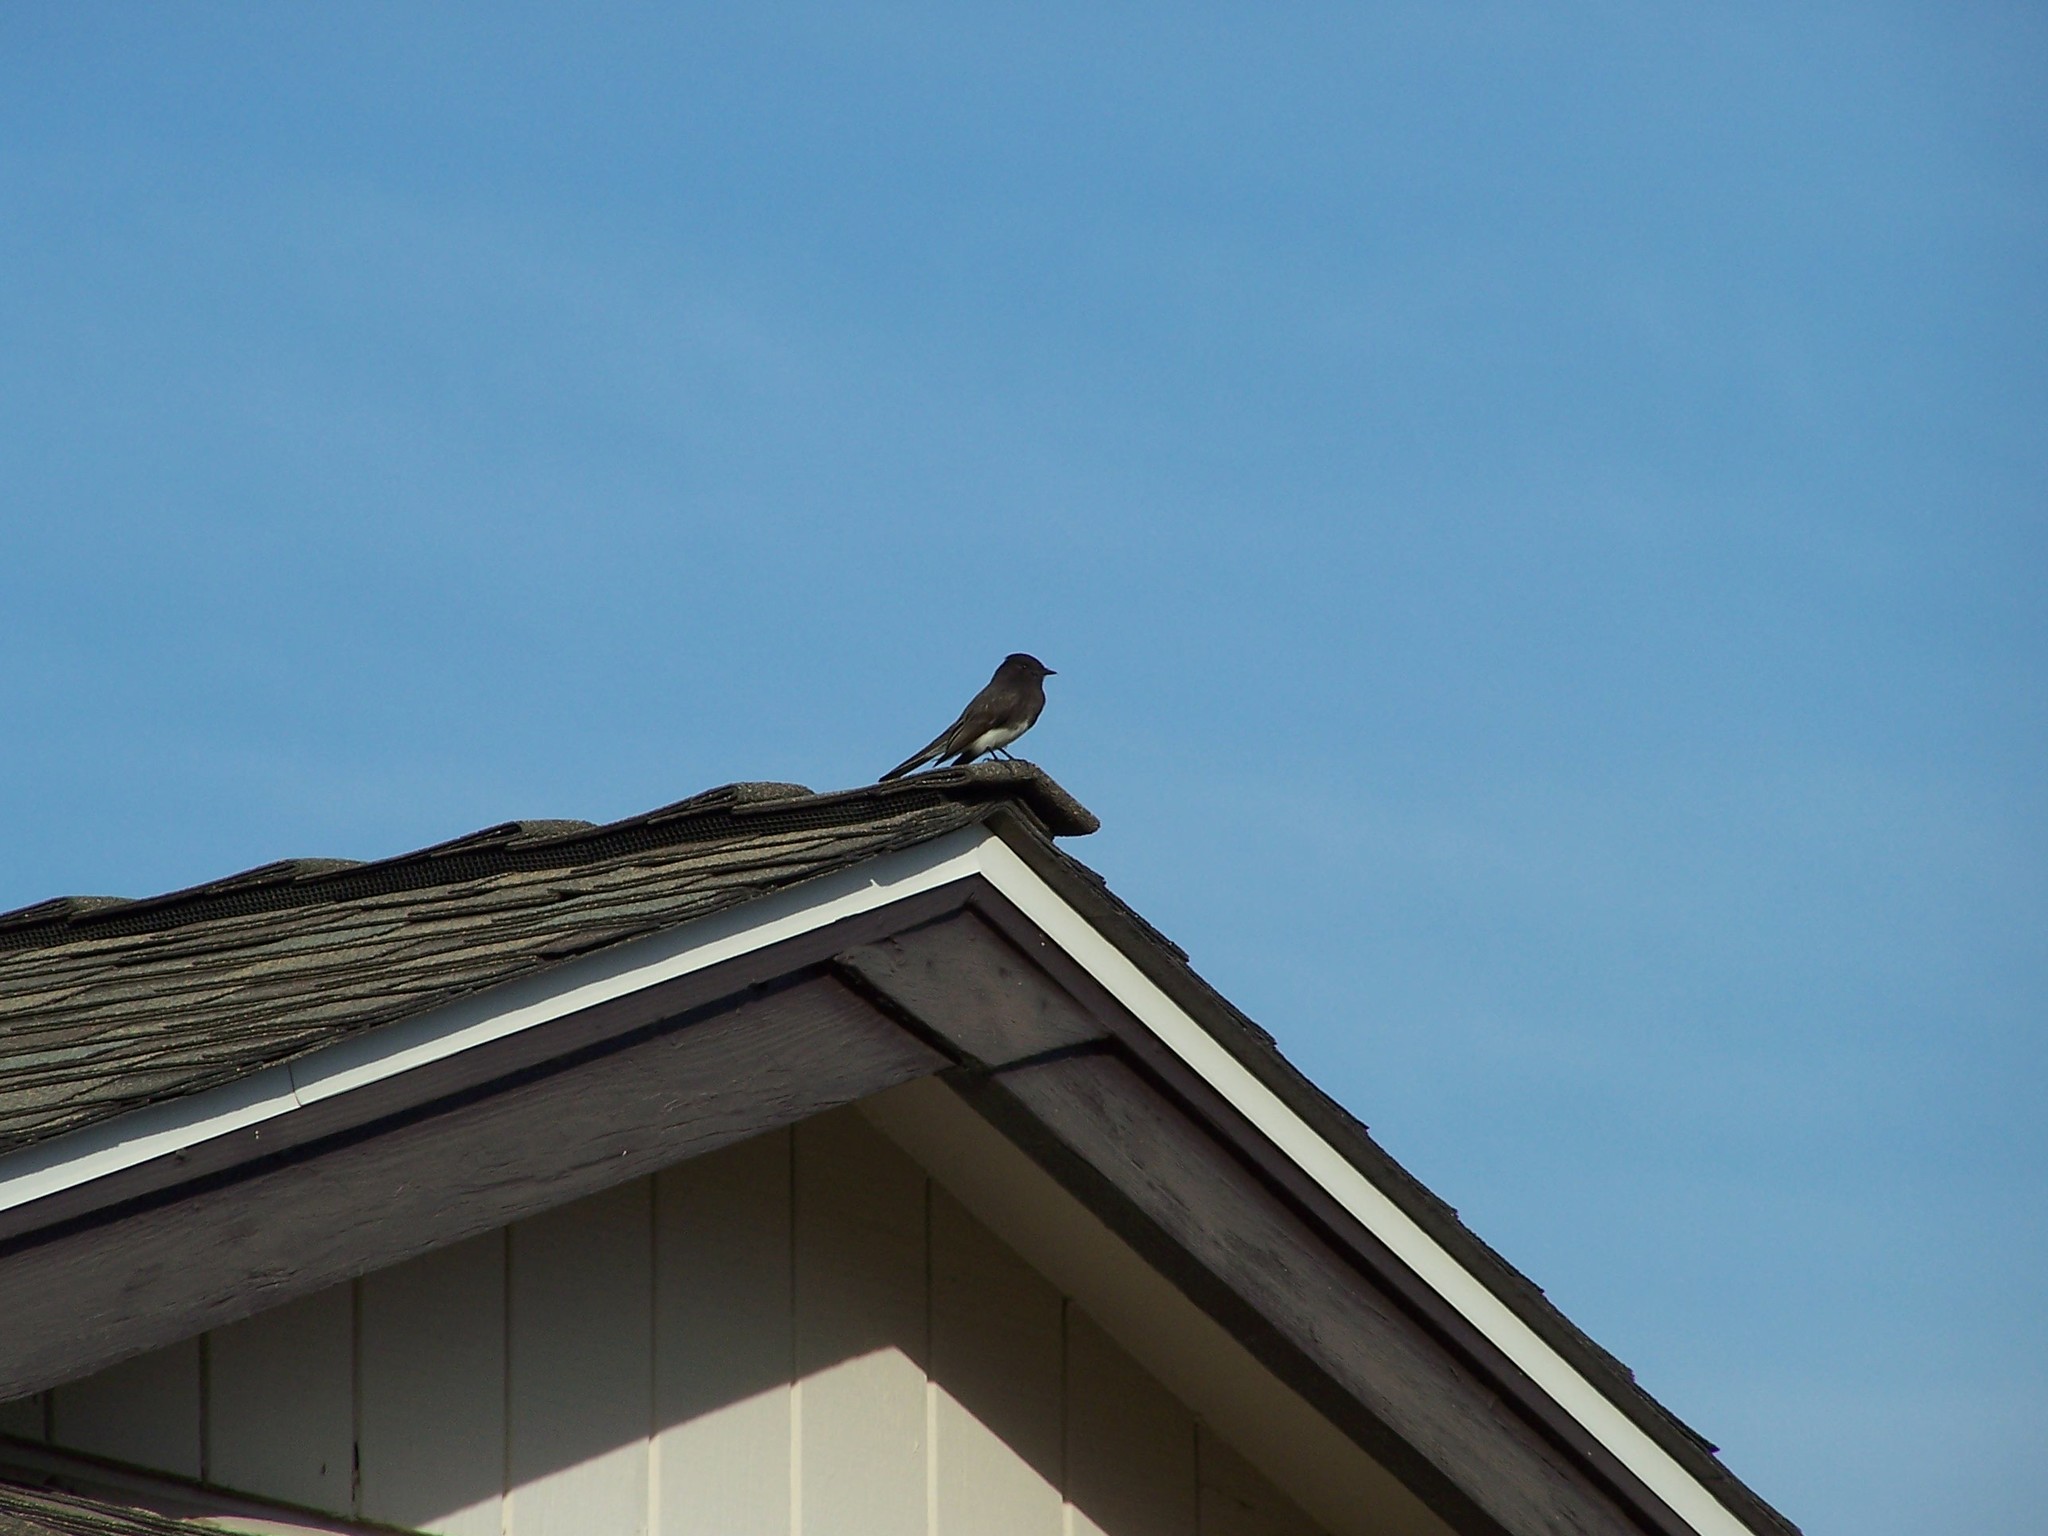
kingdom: Animalia
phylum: Chordata
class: Aves
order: Passeriformes
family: Tyrannidae
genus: Sayornis
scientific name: Sayornis nigricans
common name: Black phoebe
